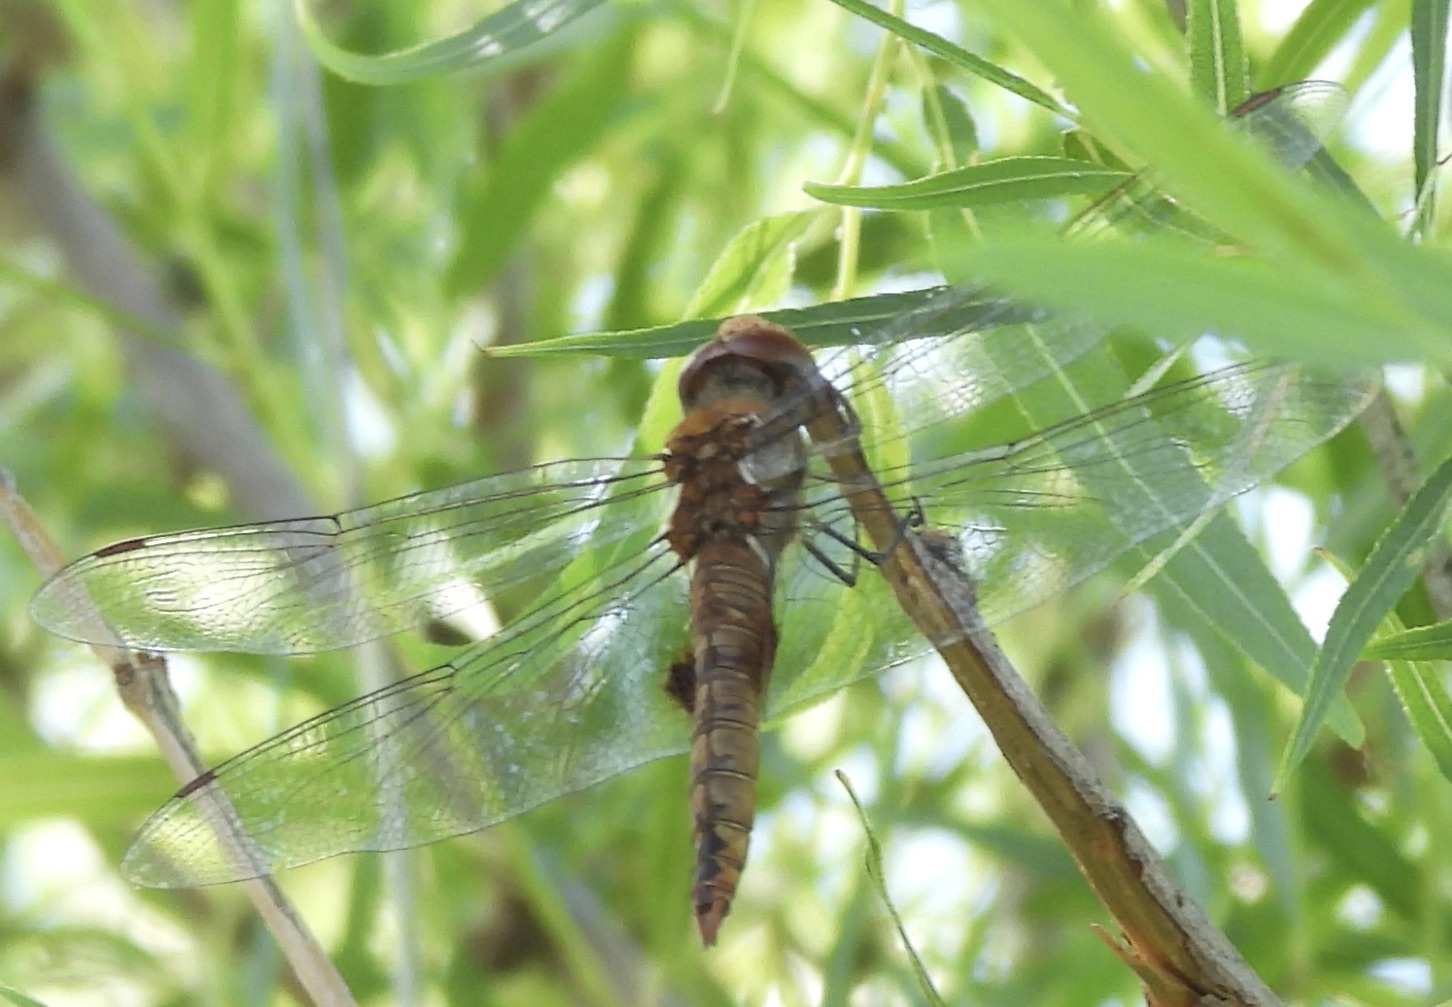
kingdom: Animalia
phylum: Arthropoda
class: Insecta
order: Odonata
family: Libellulidae
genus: Pantala
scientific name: Pantala hymenaea
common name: Spot-winged glider
